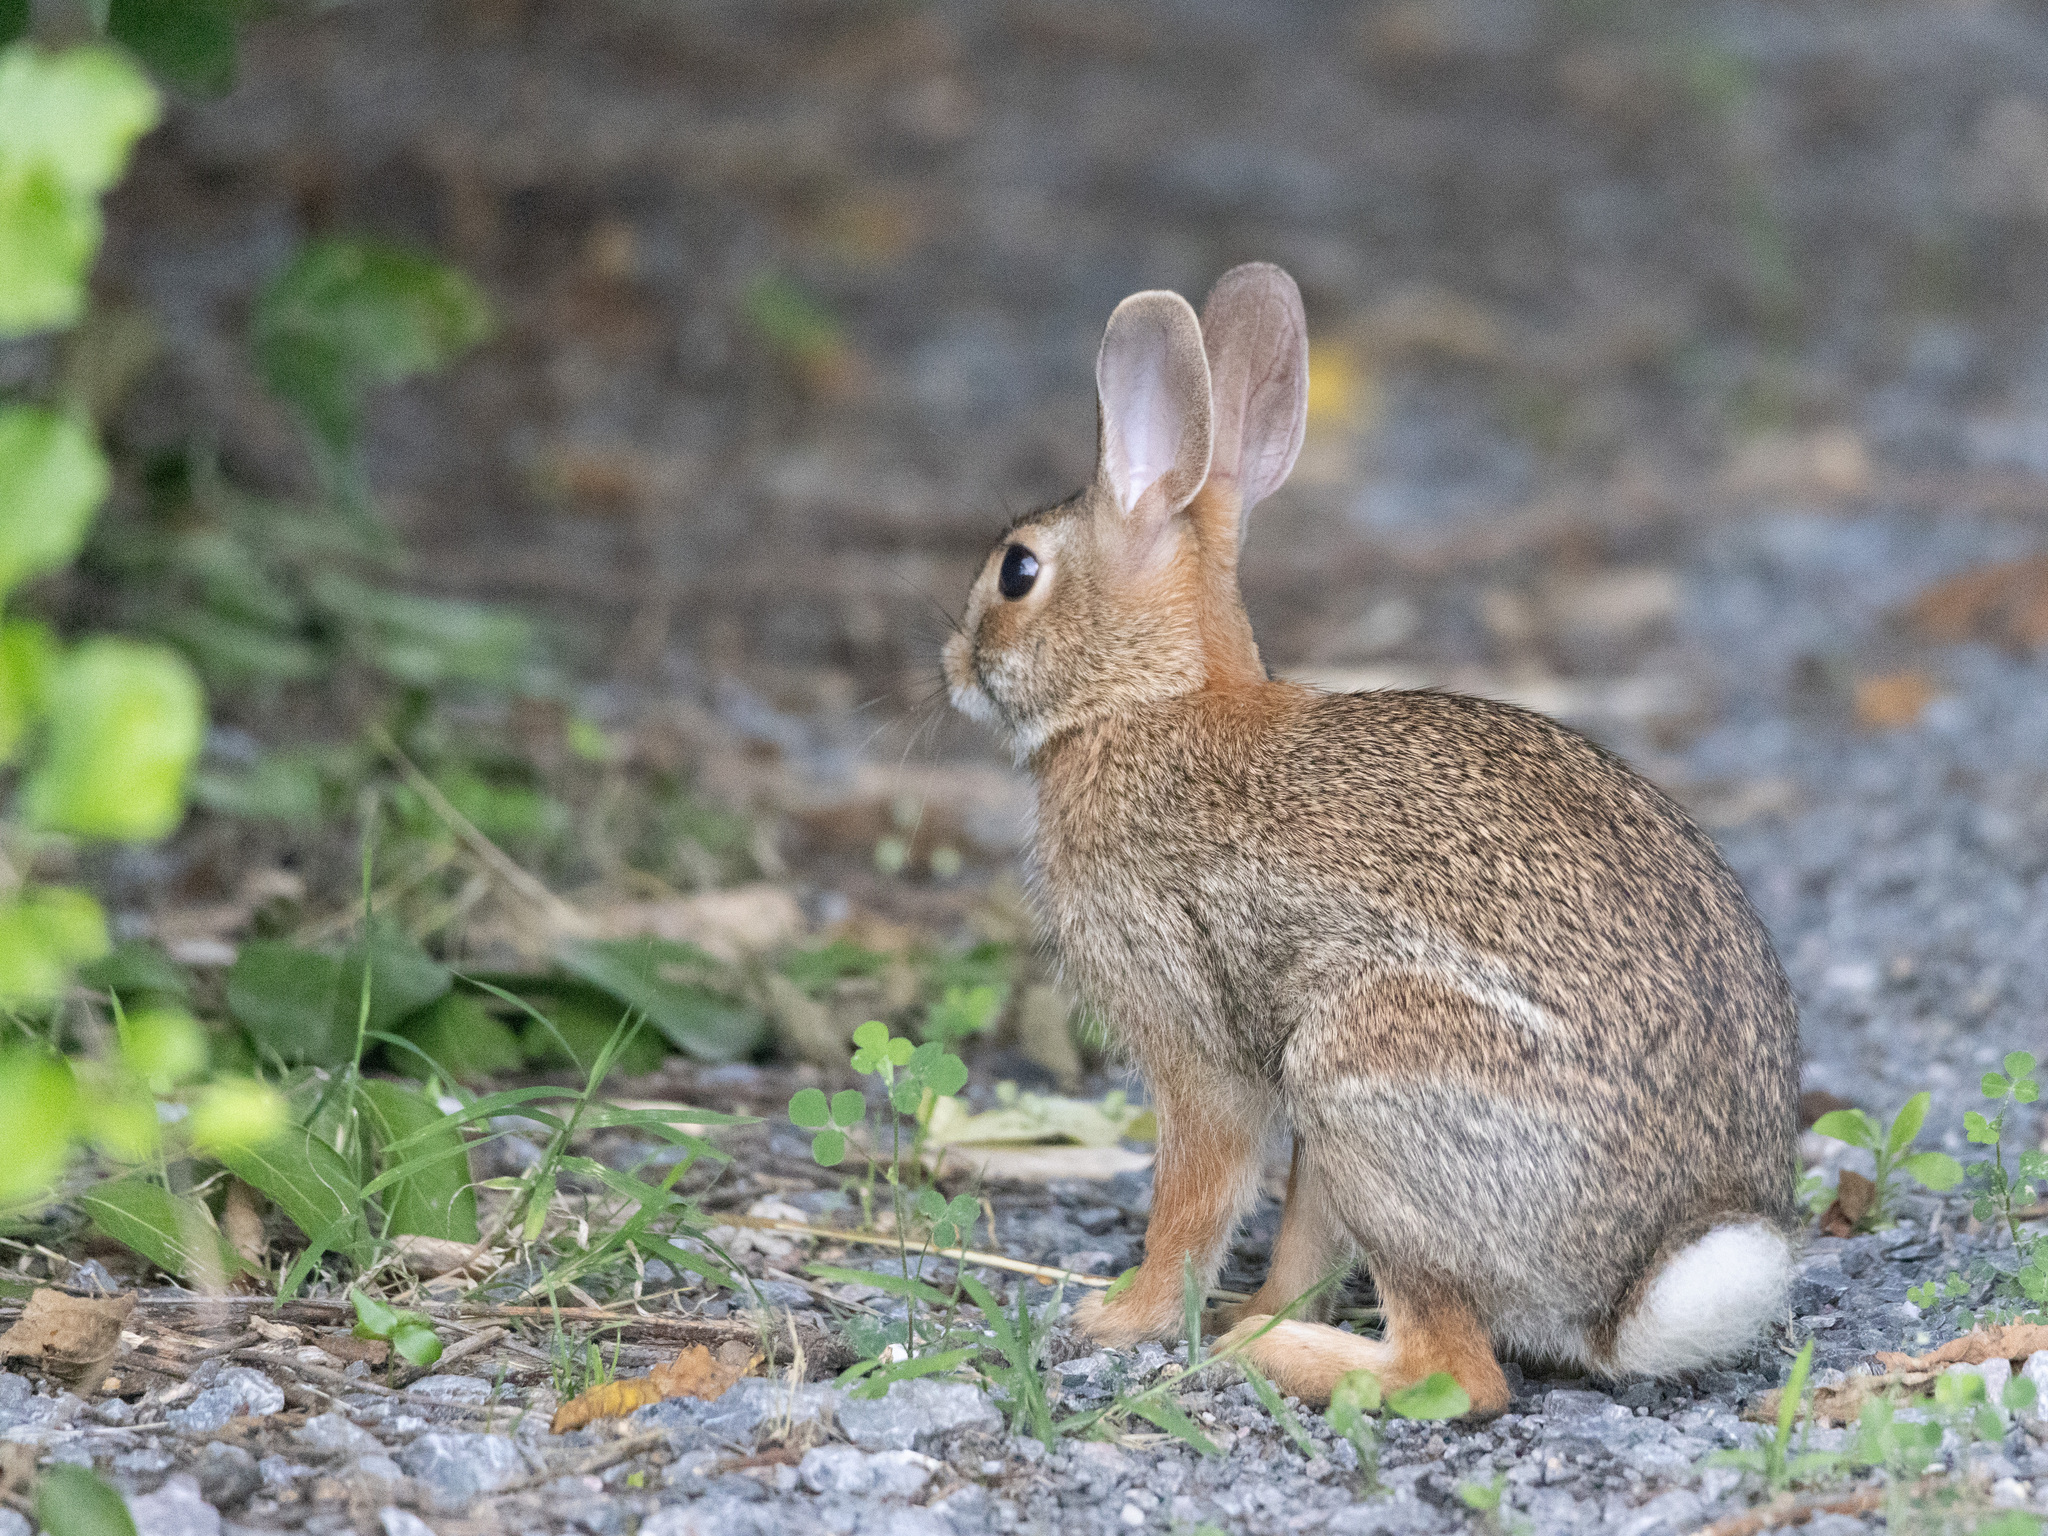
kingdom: Animalia
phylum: Chordata
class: Mammalia
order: Lagomorpha
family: Leporidae
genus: Sylvilagus
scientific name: Sylvilagus floridanus
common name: Eastern cottontail
